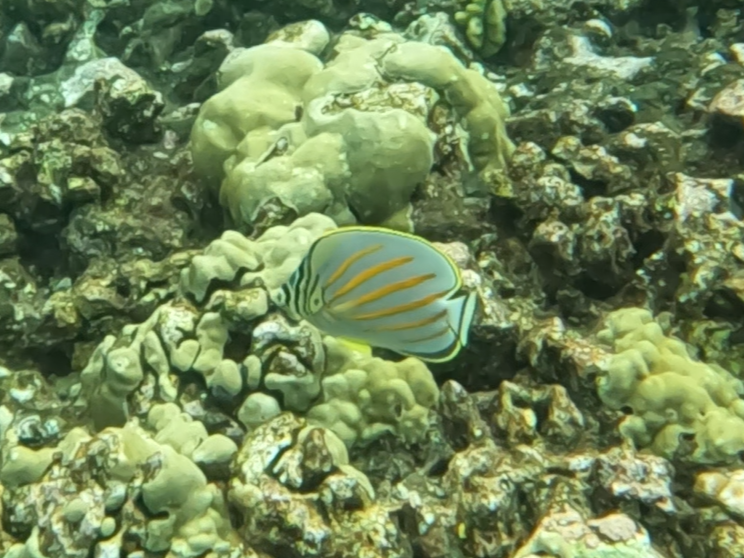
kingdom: Animalia
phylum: Chordata
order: Perciformes
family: Chaetodontidae
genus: Chaetodon
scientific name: Chaetodon ornatissimus
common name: Ornate butterflyfish
